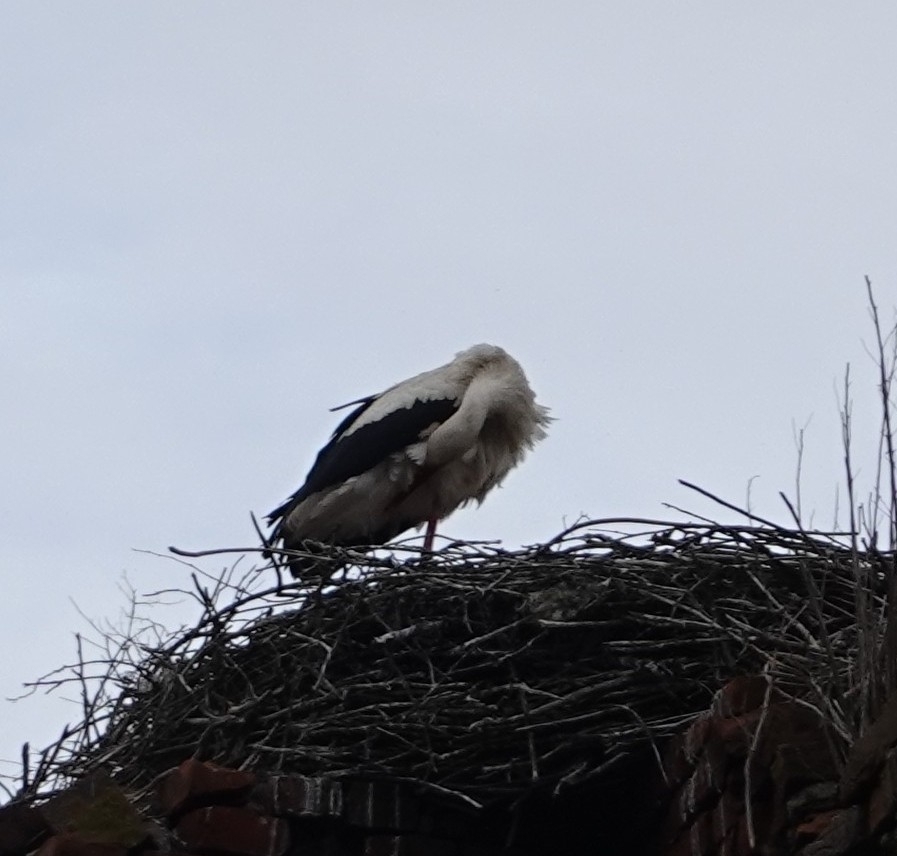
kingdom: Animalia
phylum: Chordata
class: Aves
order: Ciconiiformes
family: Ciconiidae
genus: Ciconia
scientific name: Ciconia ciconia
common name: White stork
